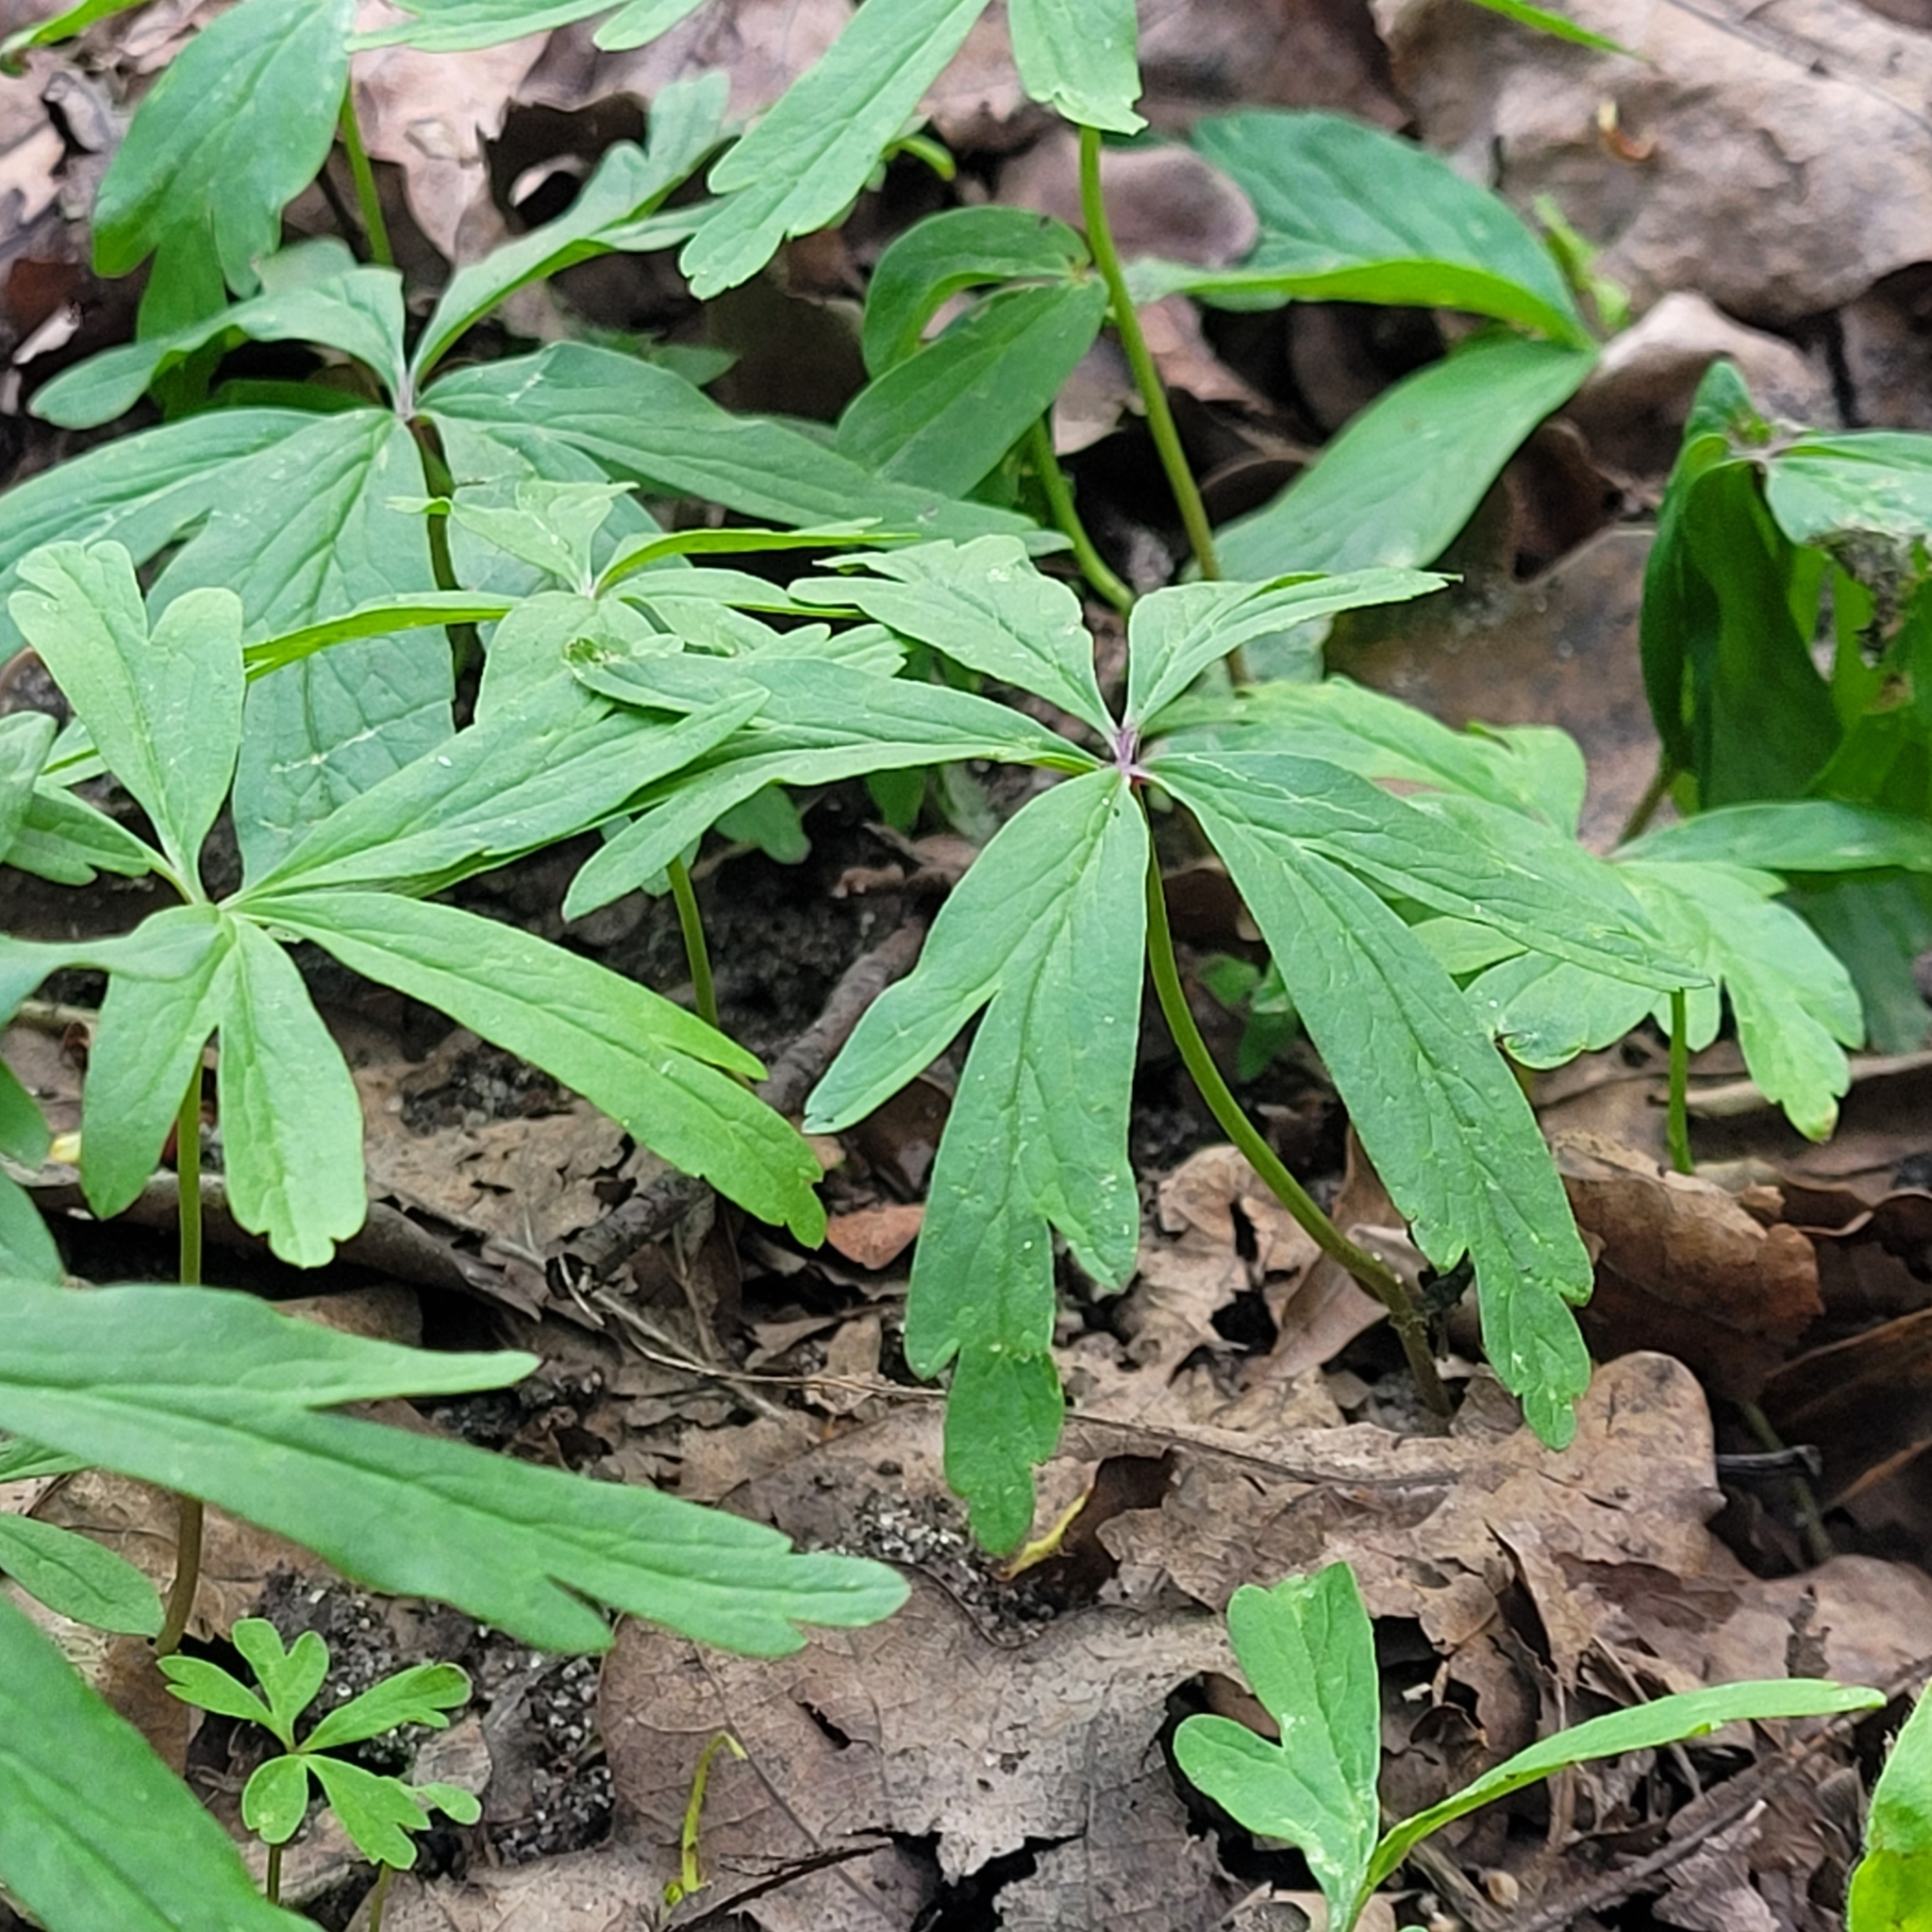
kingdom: Plantae
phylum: Tracheophyta
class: Magnoliopsida
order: Ranunculales
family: Ranunculaceae
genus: Anemone
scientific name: Anemone ranunculoides
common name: Yellow anemone
